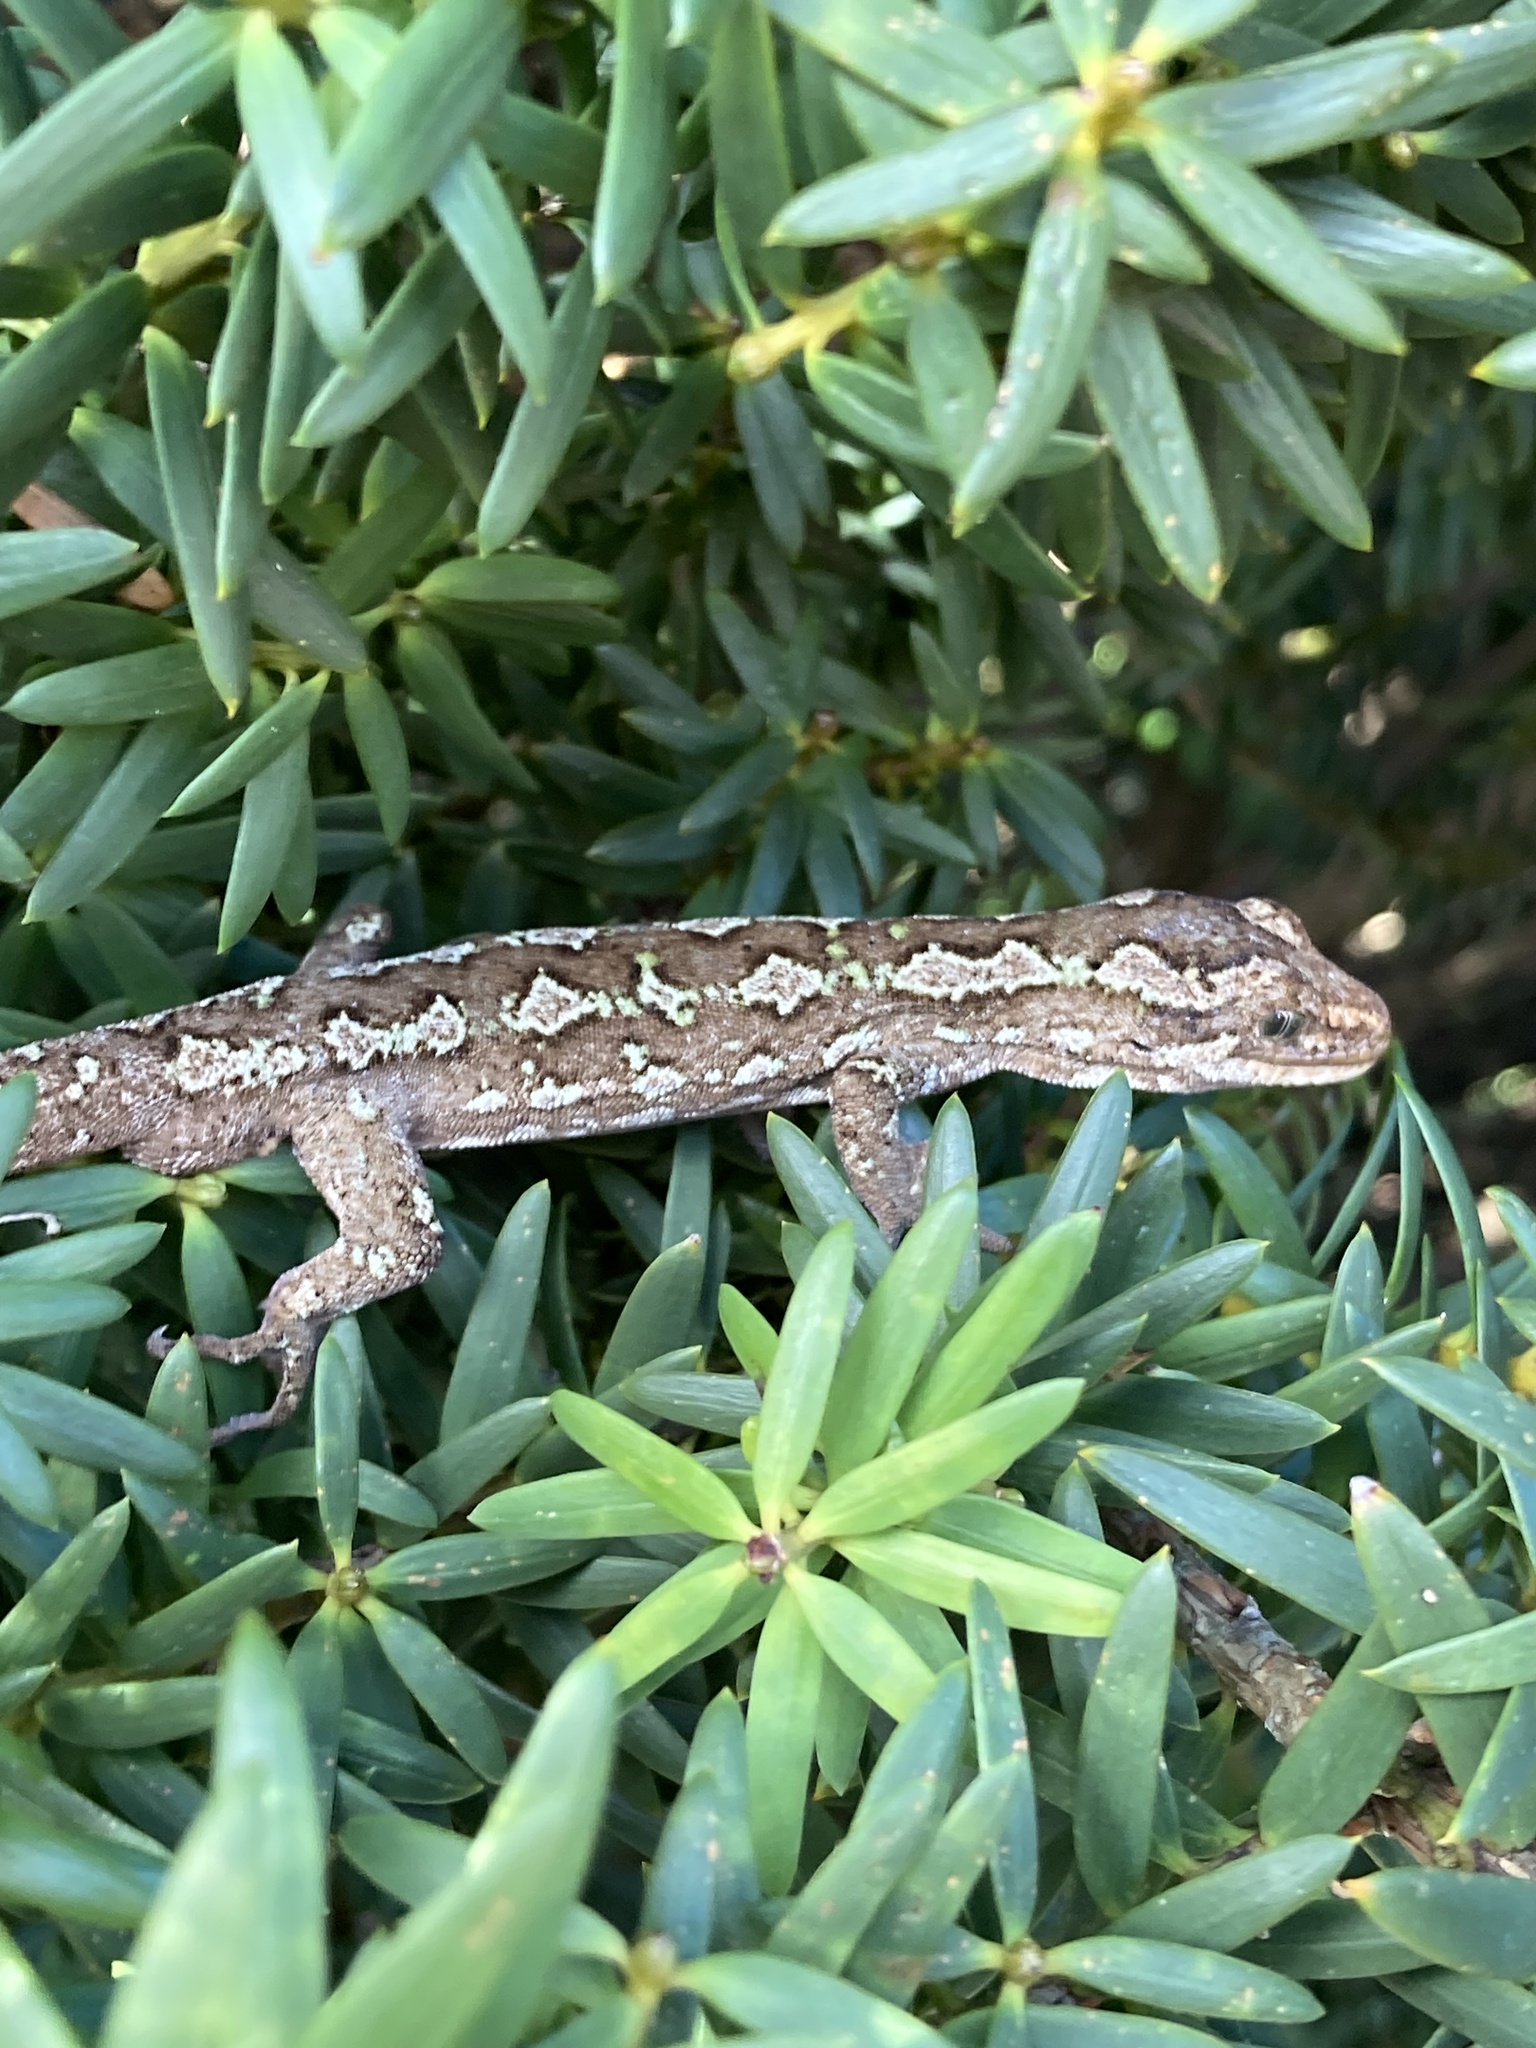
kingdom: Animalia
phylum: Chordata
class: Squamata
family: Diplodactylidae
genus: Naultinus
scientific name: Naultinus gemmeus
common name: Jewelled gecko
